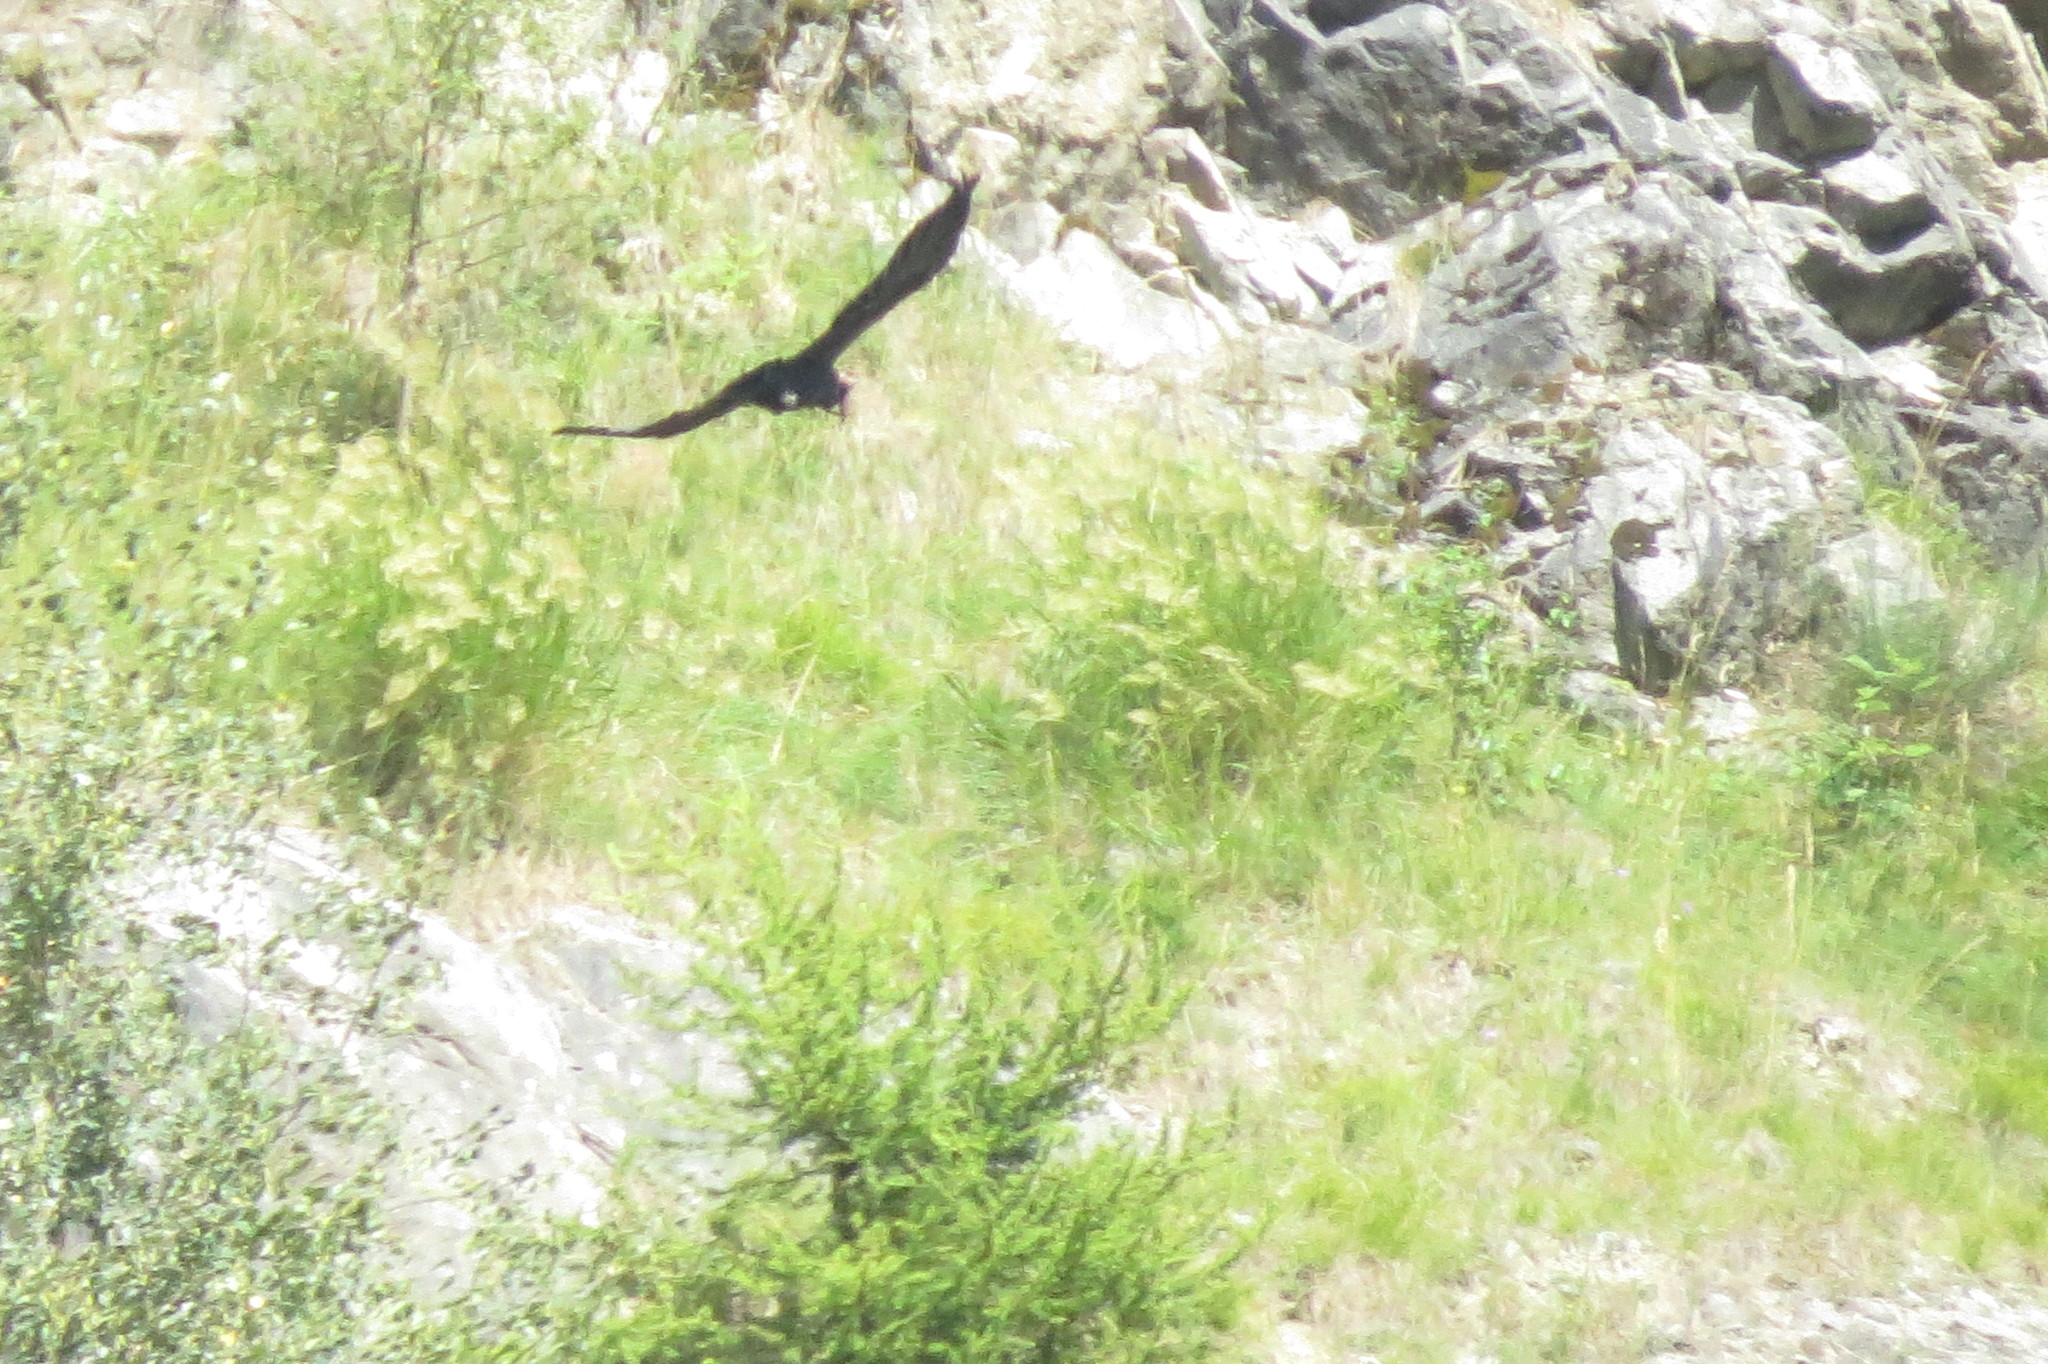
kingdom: Animalia
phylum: Chordata
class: Aves
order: Passeriformes
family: Corvidae
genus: Corvus
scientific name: Corvus corax
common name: Common raven
